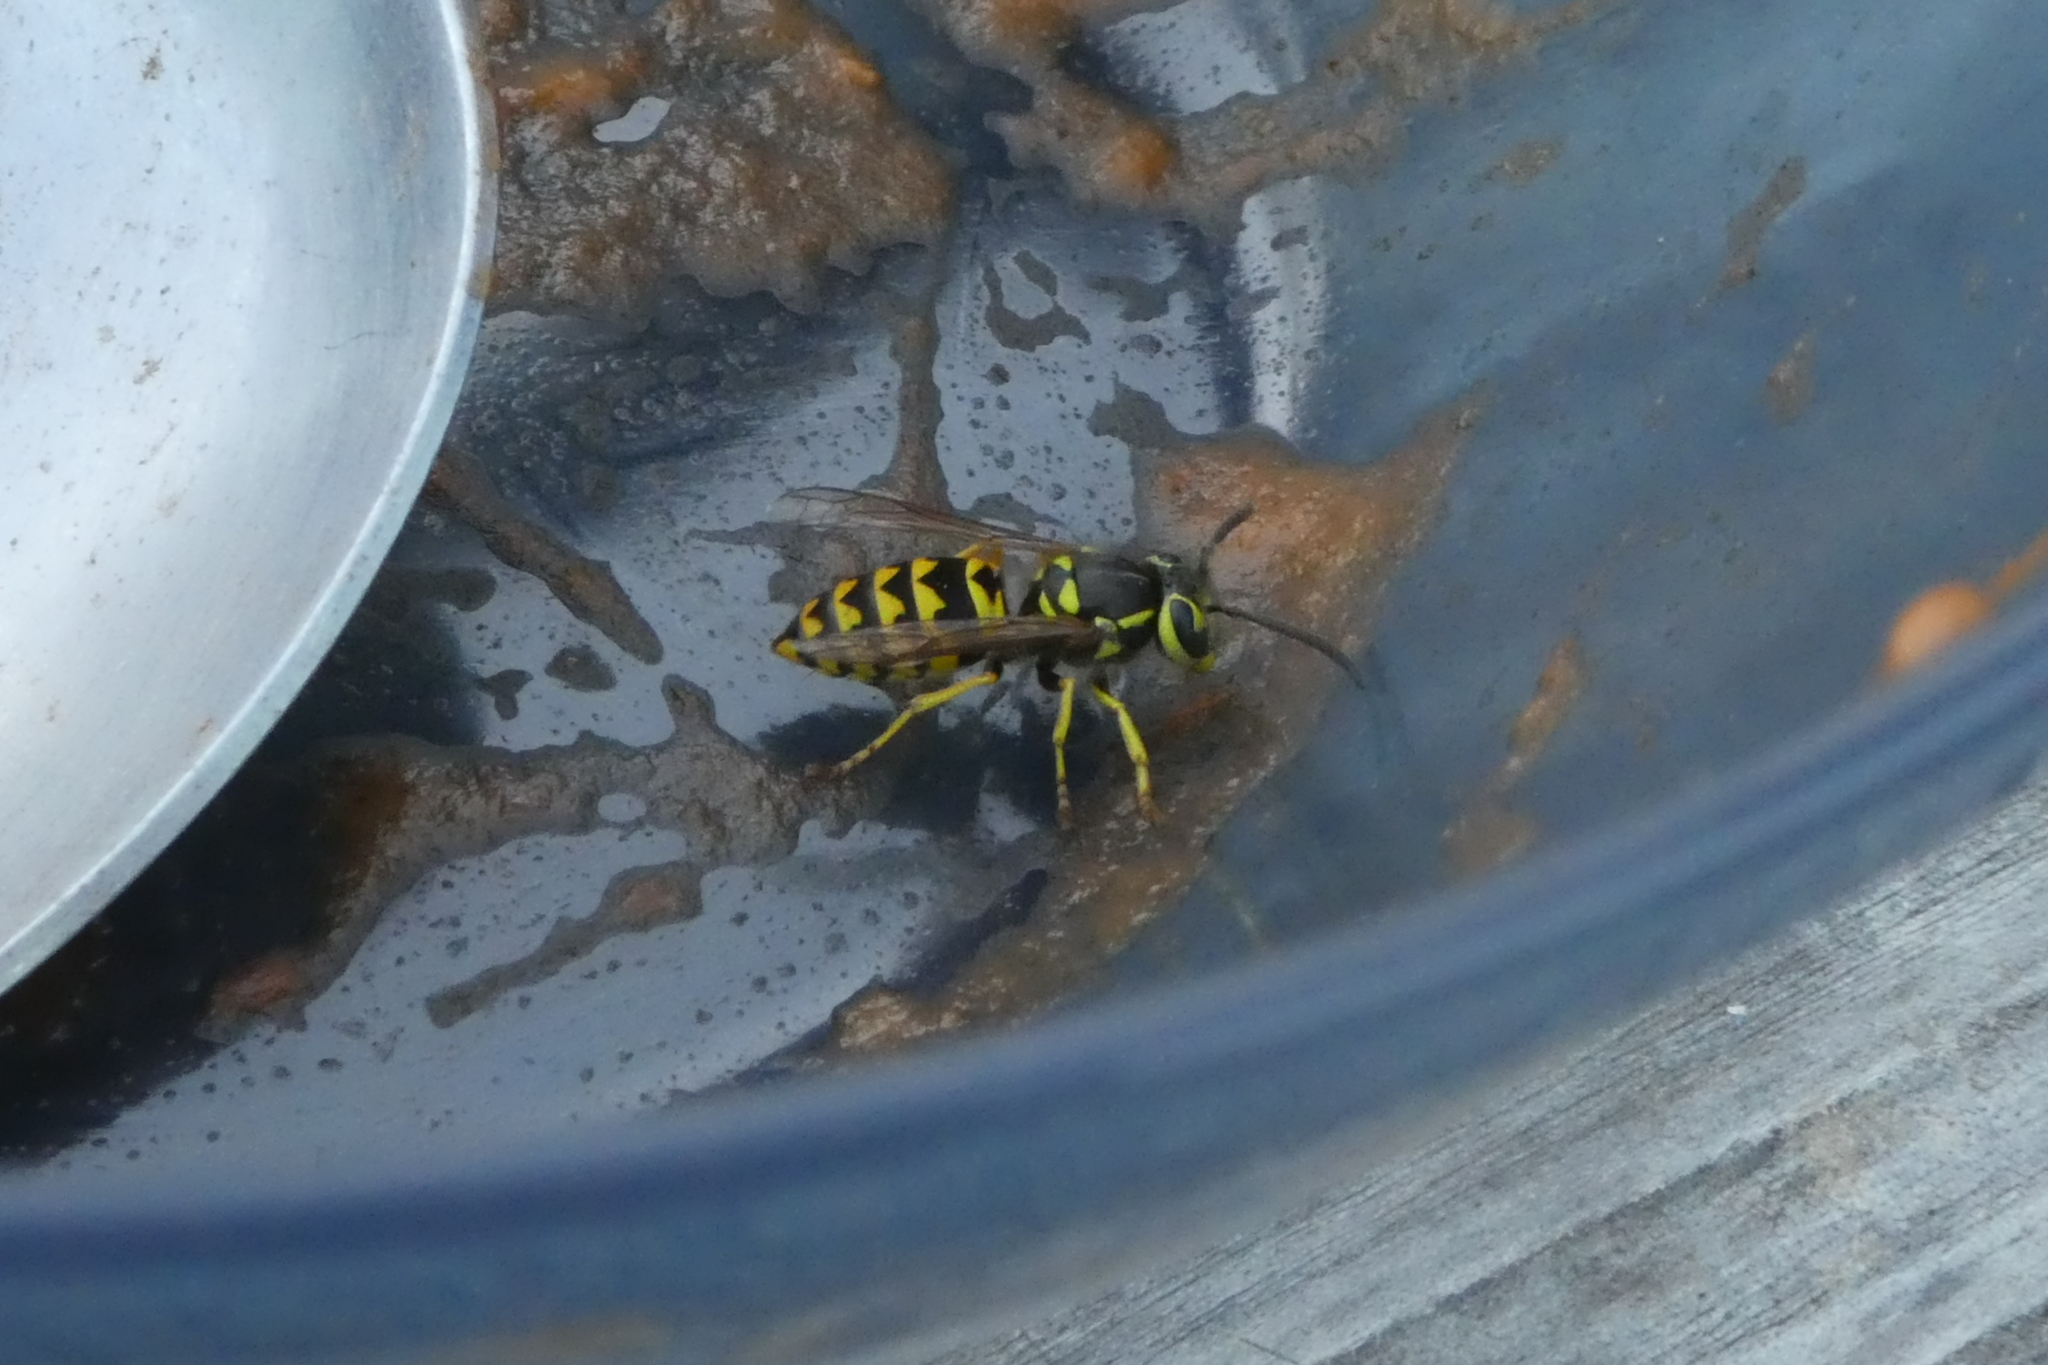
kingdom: Animalia
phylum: Arthropoda
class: Insecta
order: Hymenoptera
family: Vespidae
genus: Vespula
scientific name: Vespula pensylvanica
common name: Western yellowjacket
